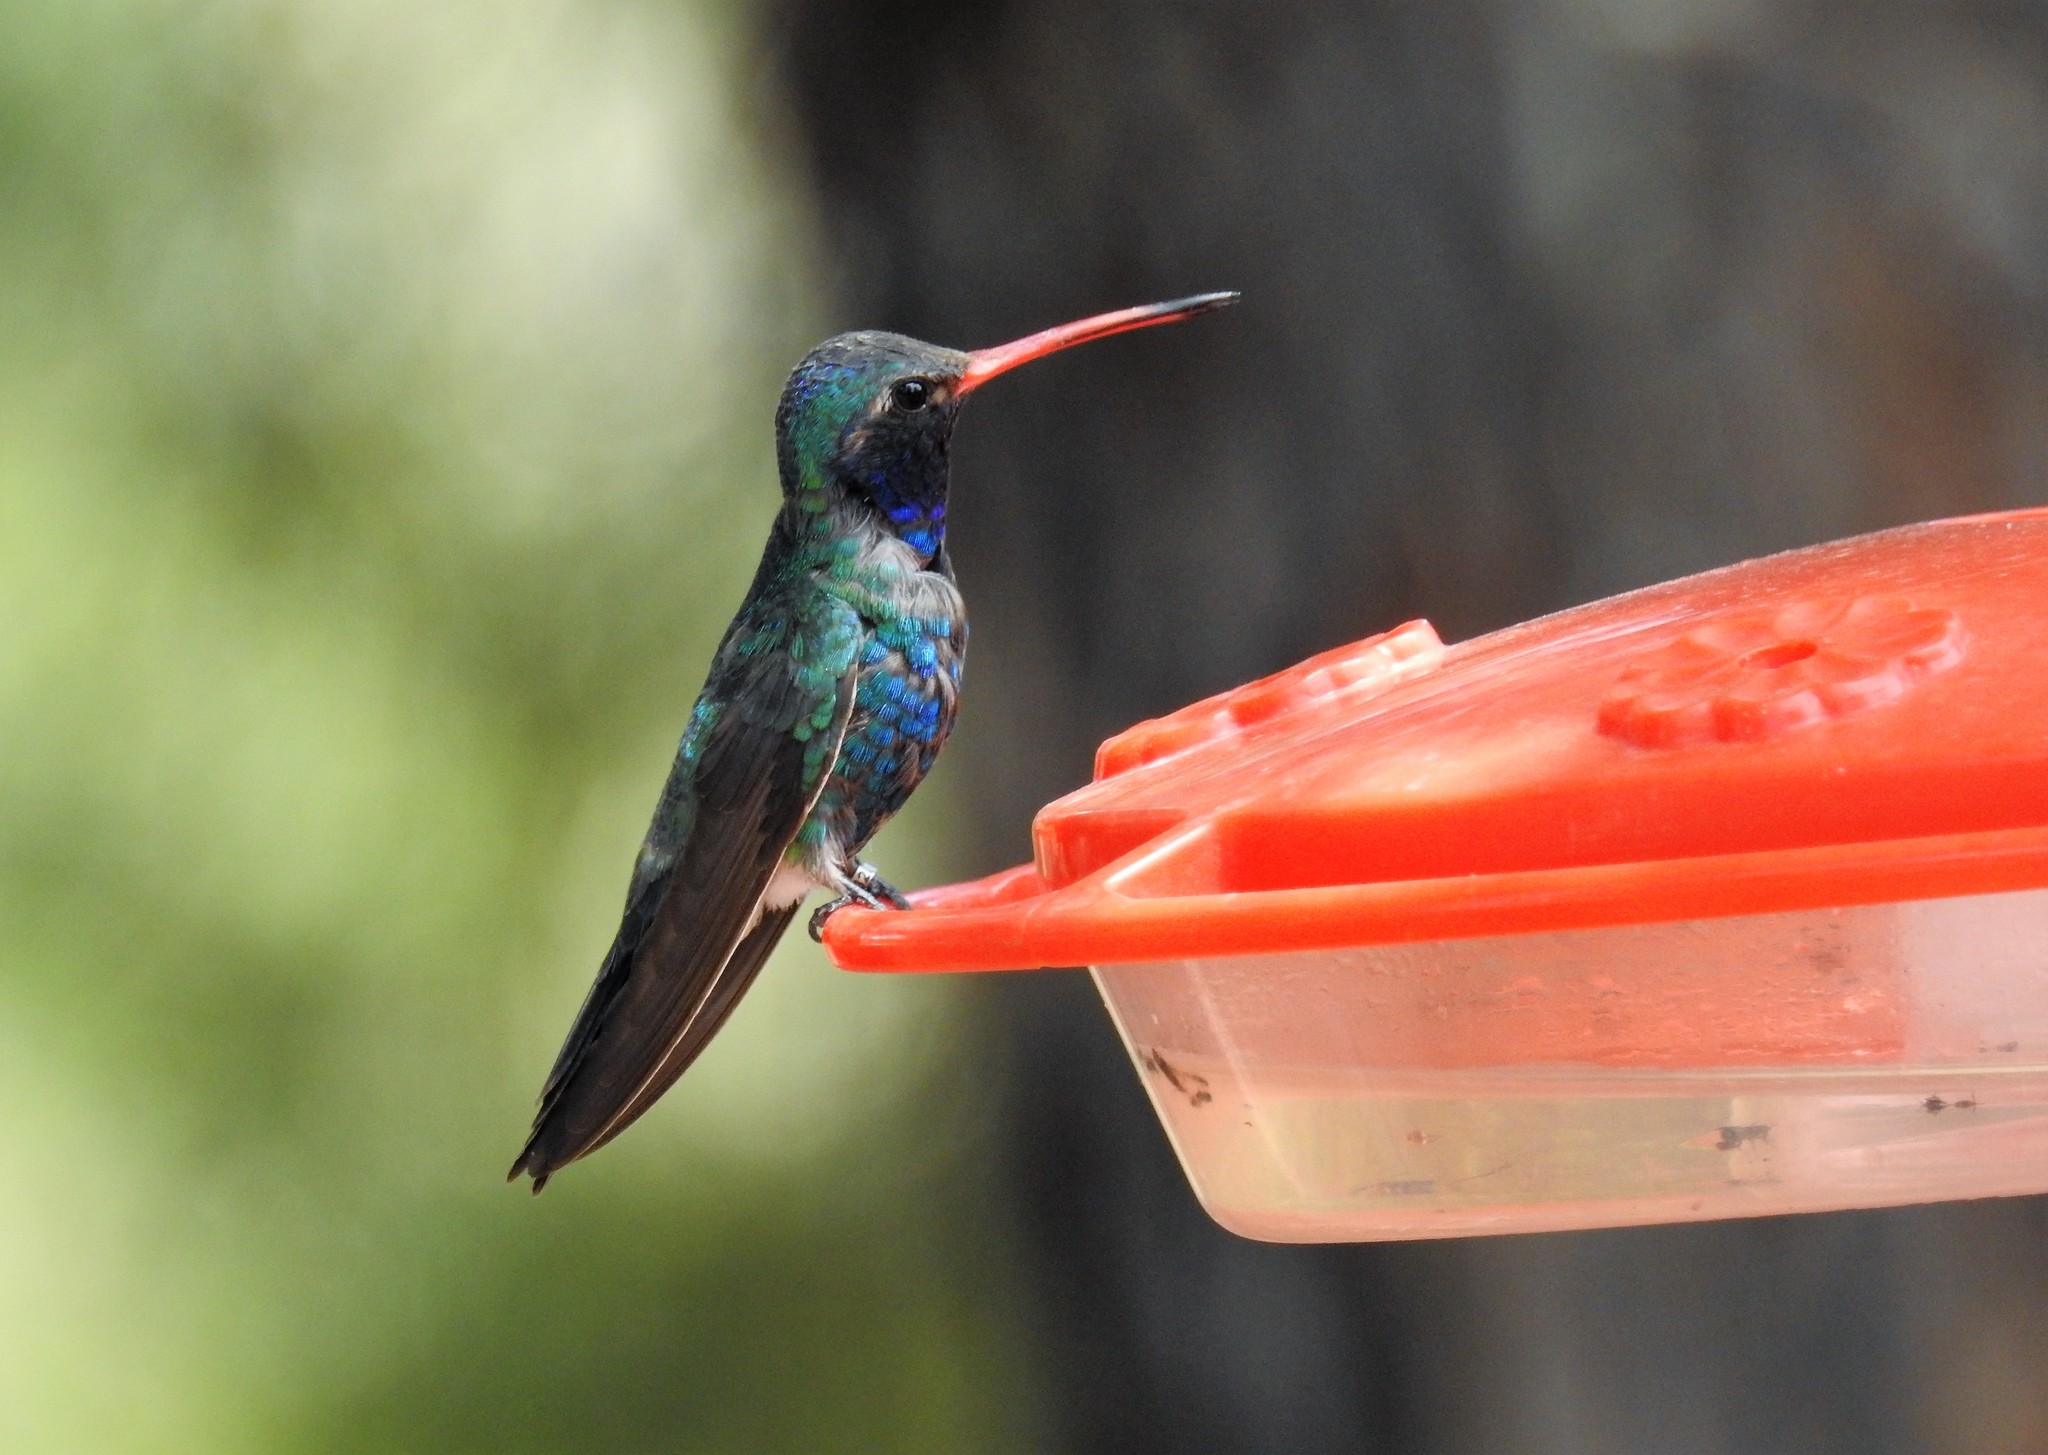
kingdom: Animalia
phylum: Chordata
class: Aves
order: Apodiformes
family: Trochilidae
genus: Cynanthus
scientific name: Cynanthus latirostris
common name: Broad-billed hummingbird
